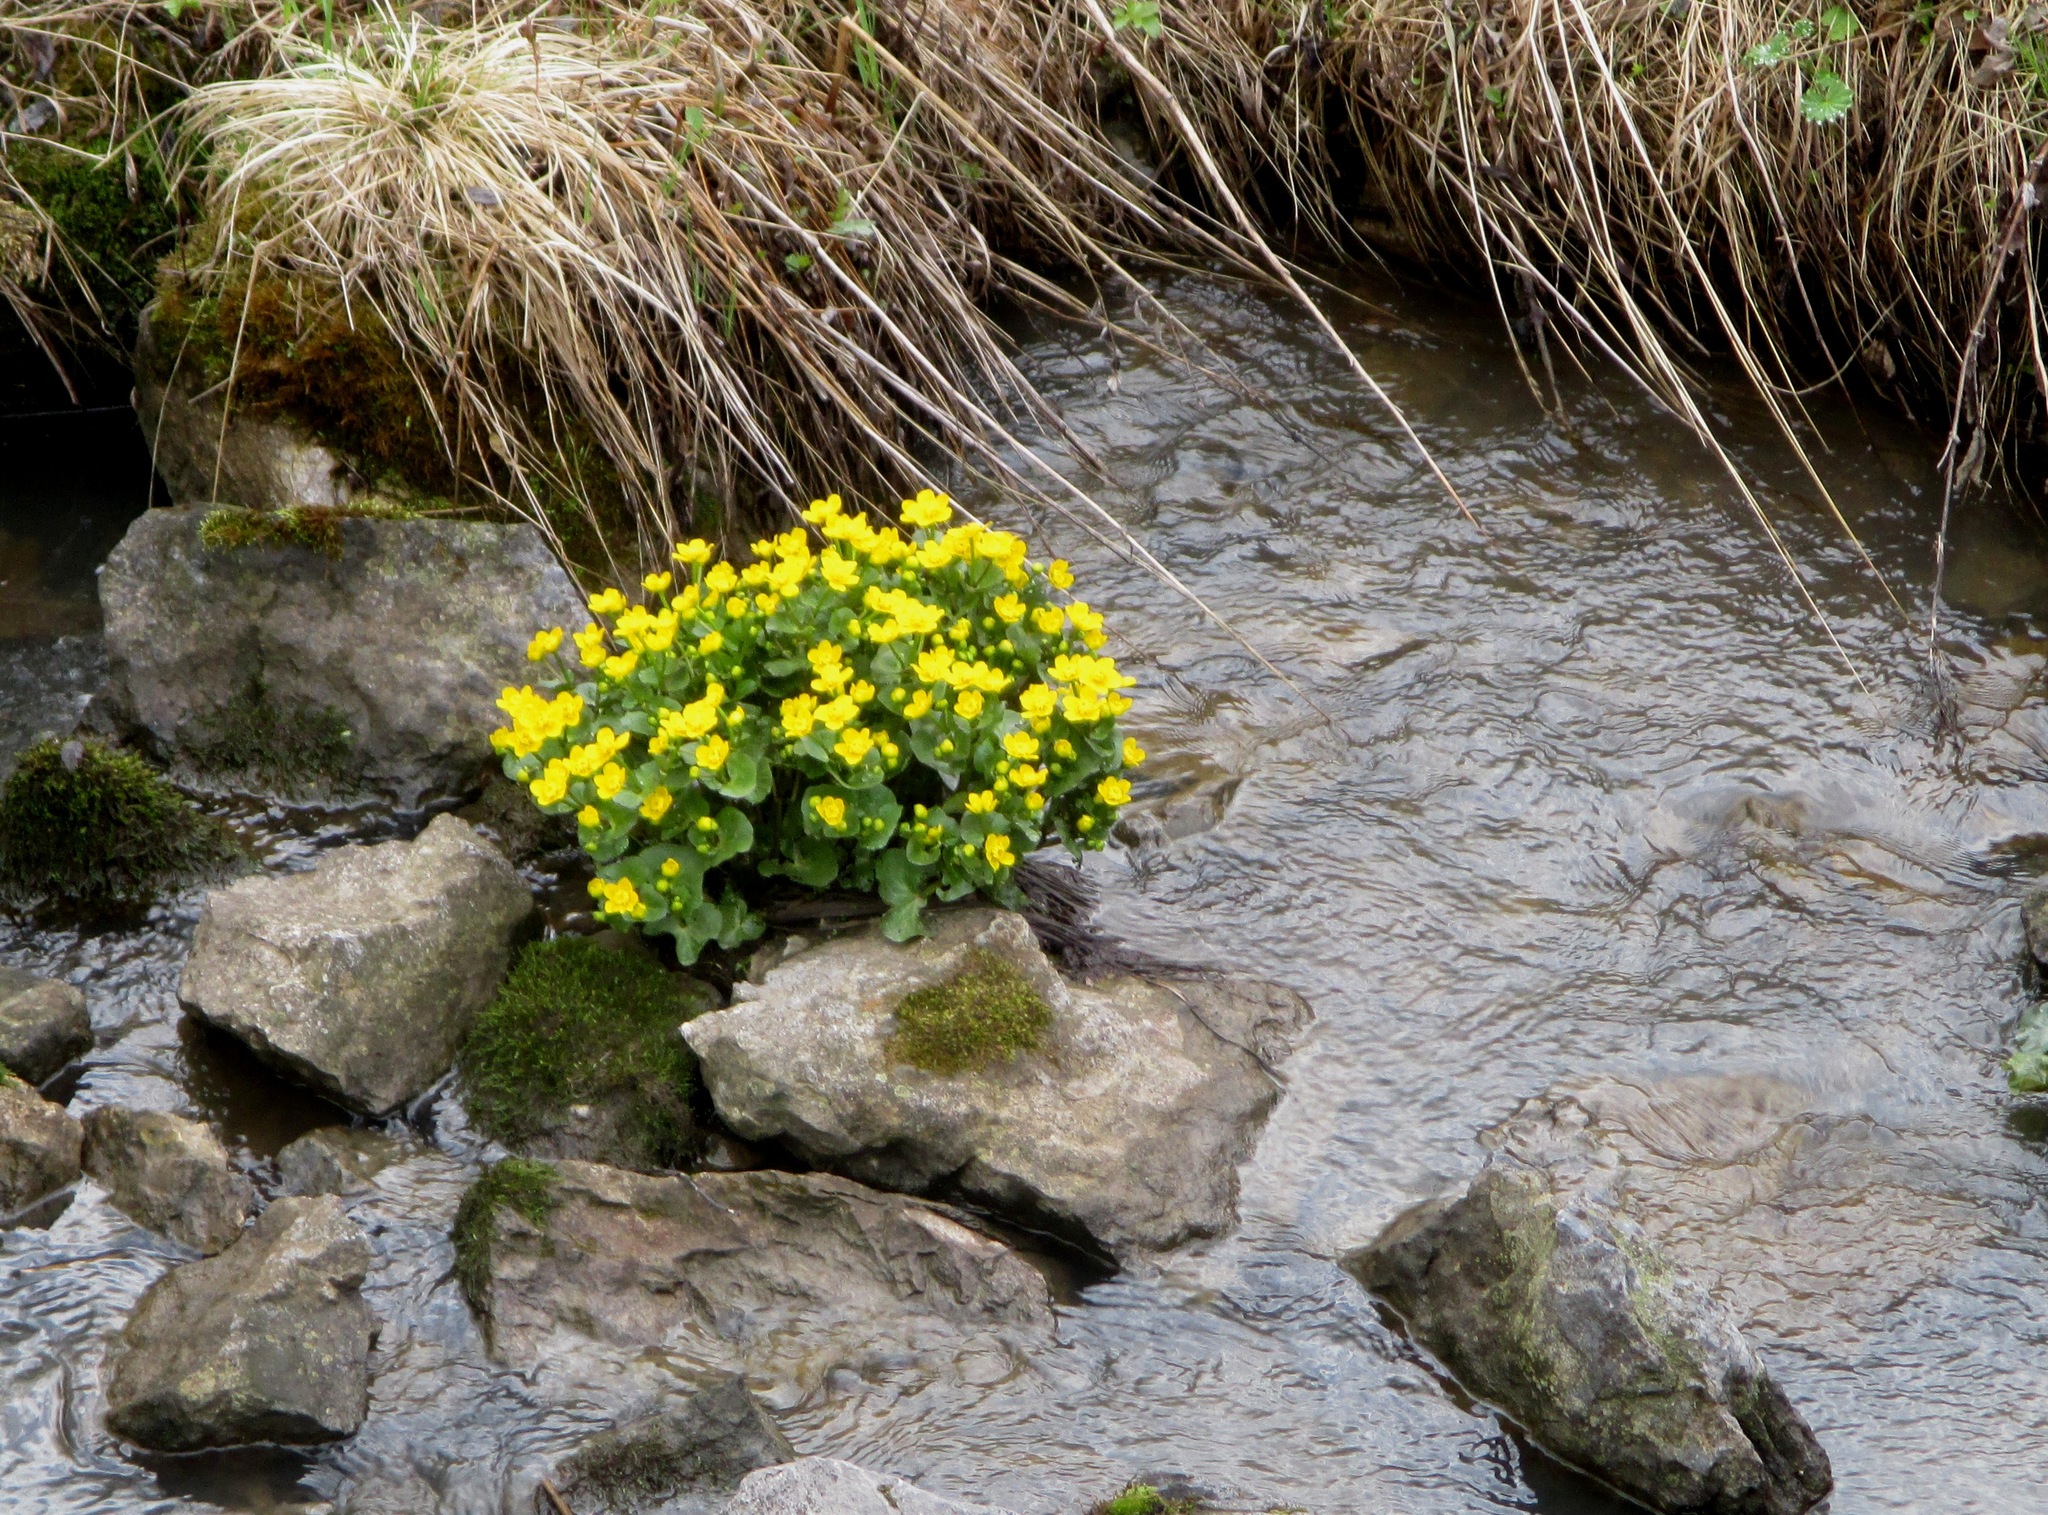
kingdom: Plantae
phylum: Tracheophyta
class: Magnoliopsida
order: Ranunculales
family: Ranunculaceae
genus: Caltha
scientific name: Caltha palustris
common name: Marsh marigold
